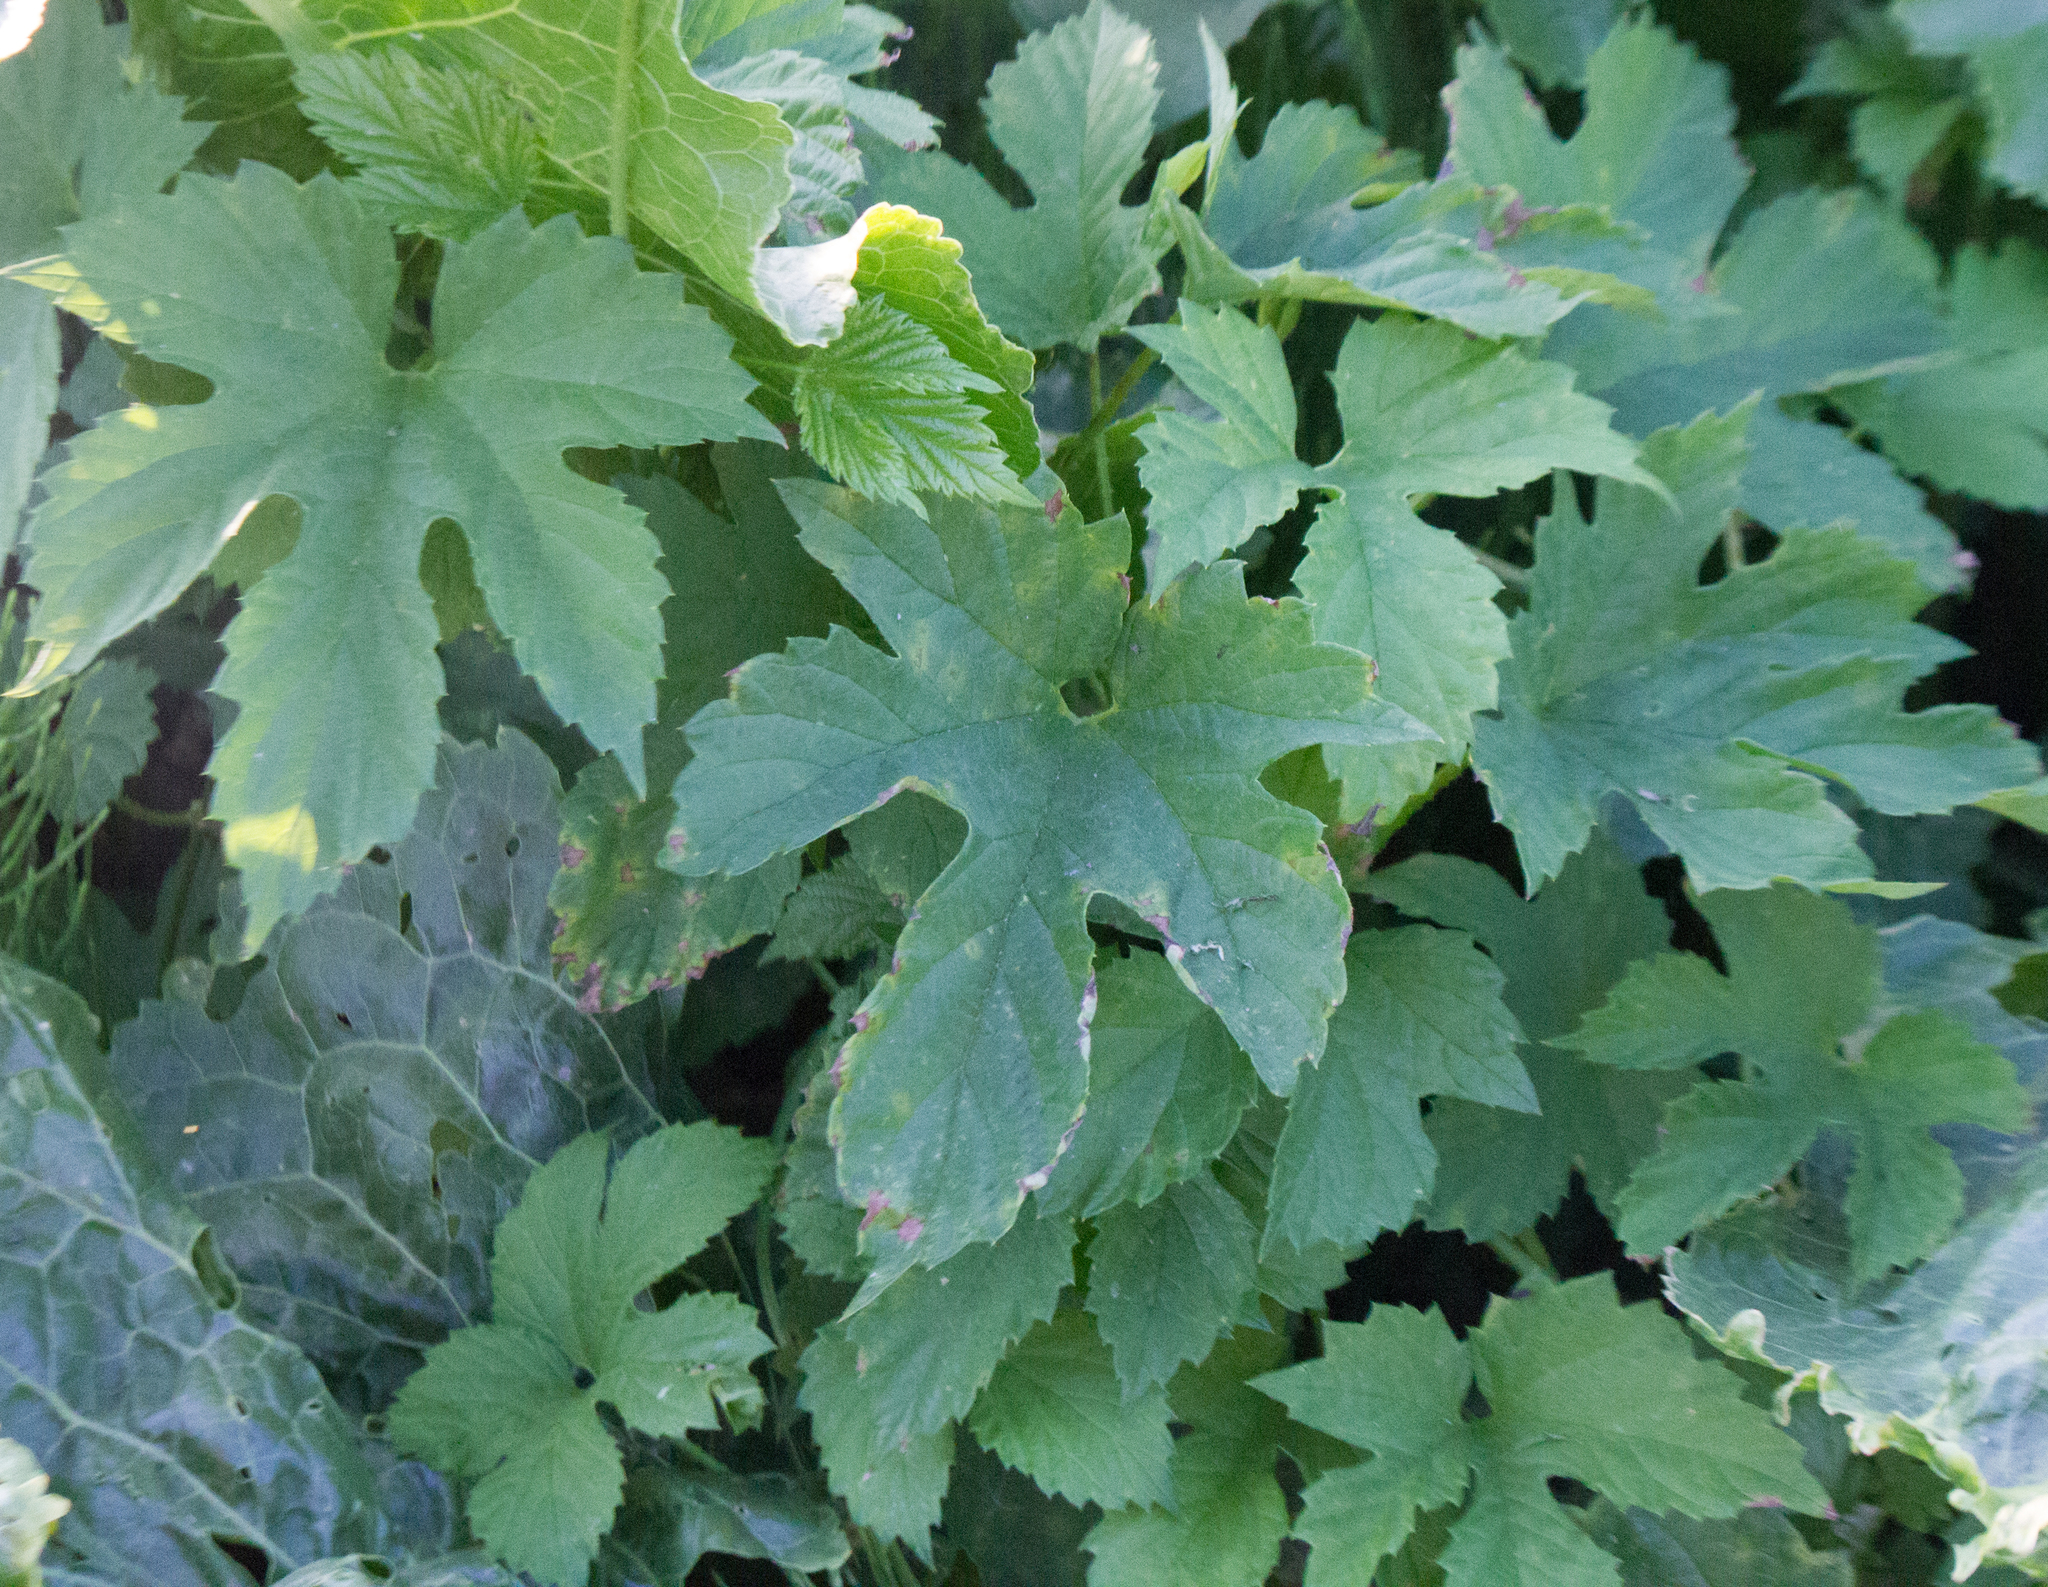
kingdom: Plantae
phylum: Tracheophyta
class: Magnoliopsida
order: Rosales
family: Cannabaceae
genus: Humulus
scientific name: Humulus lupulus
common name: Hop
